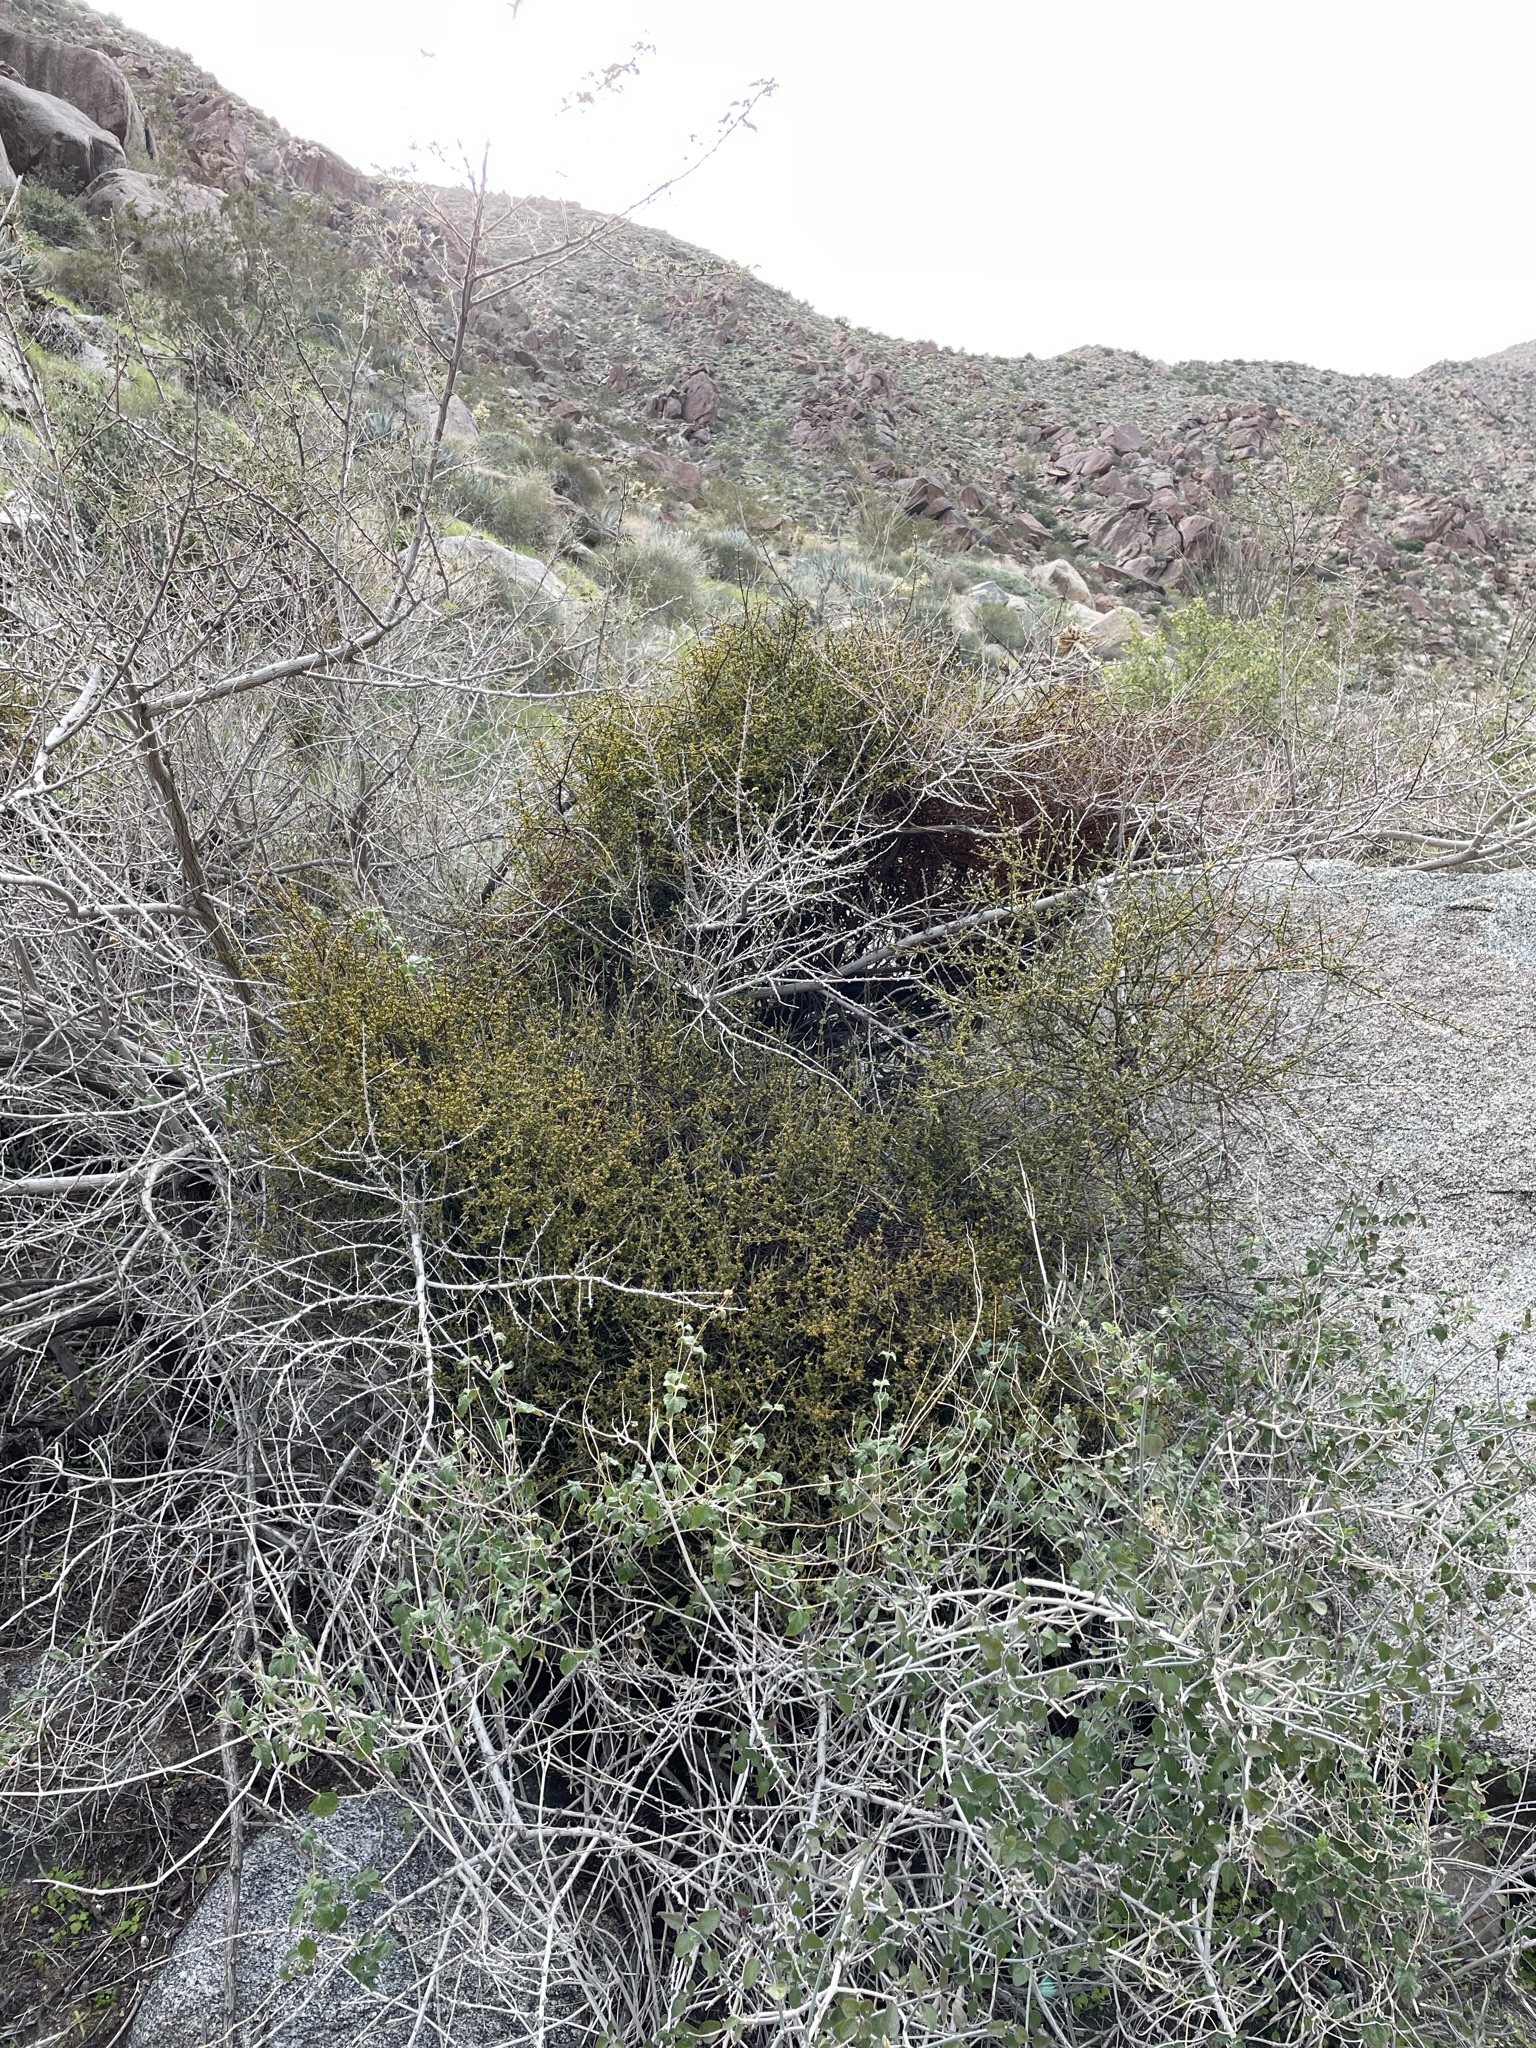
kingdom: Plantae
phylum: Tracheophyta
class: Magnoliopsida
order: Santalales
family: Viscaceae
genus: Phoradendron
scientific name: Phoradendron californicum
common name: Acacia mistletoe
